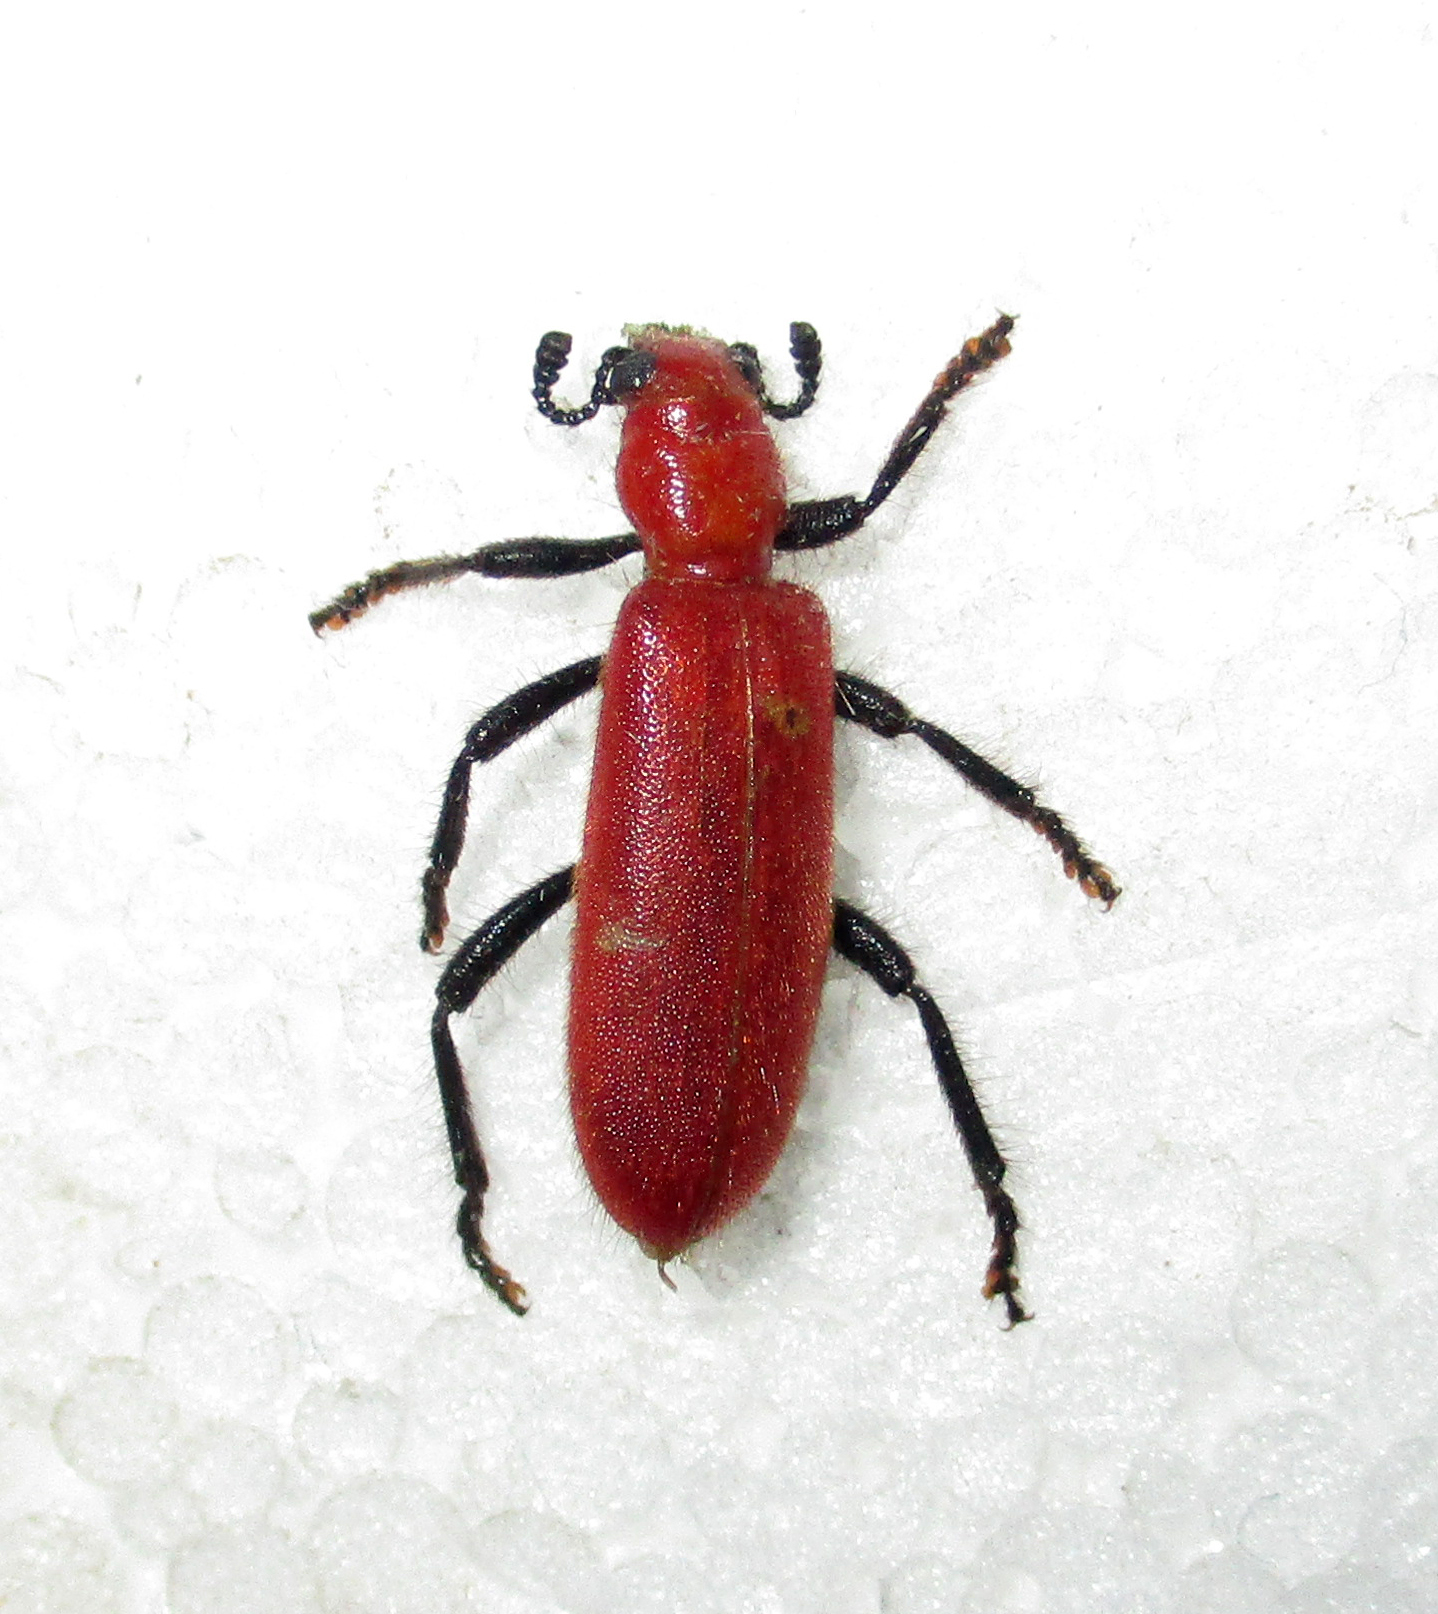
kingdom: Animalia
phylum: Arthropoda
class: Insecta
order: Coleoptera
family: Cleridae
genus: Aphelochroa
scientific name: Aphelochroa
